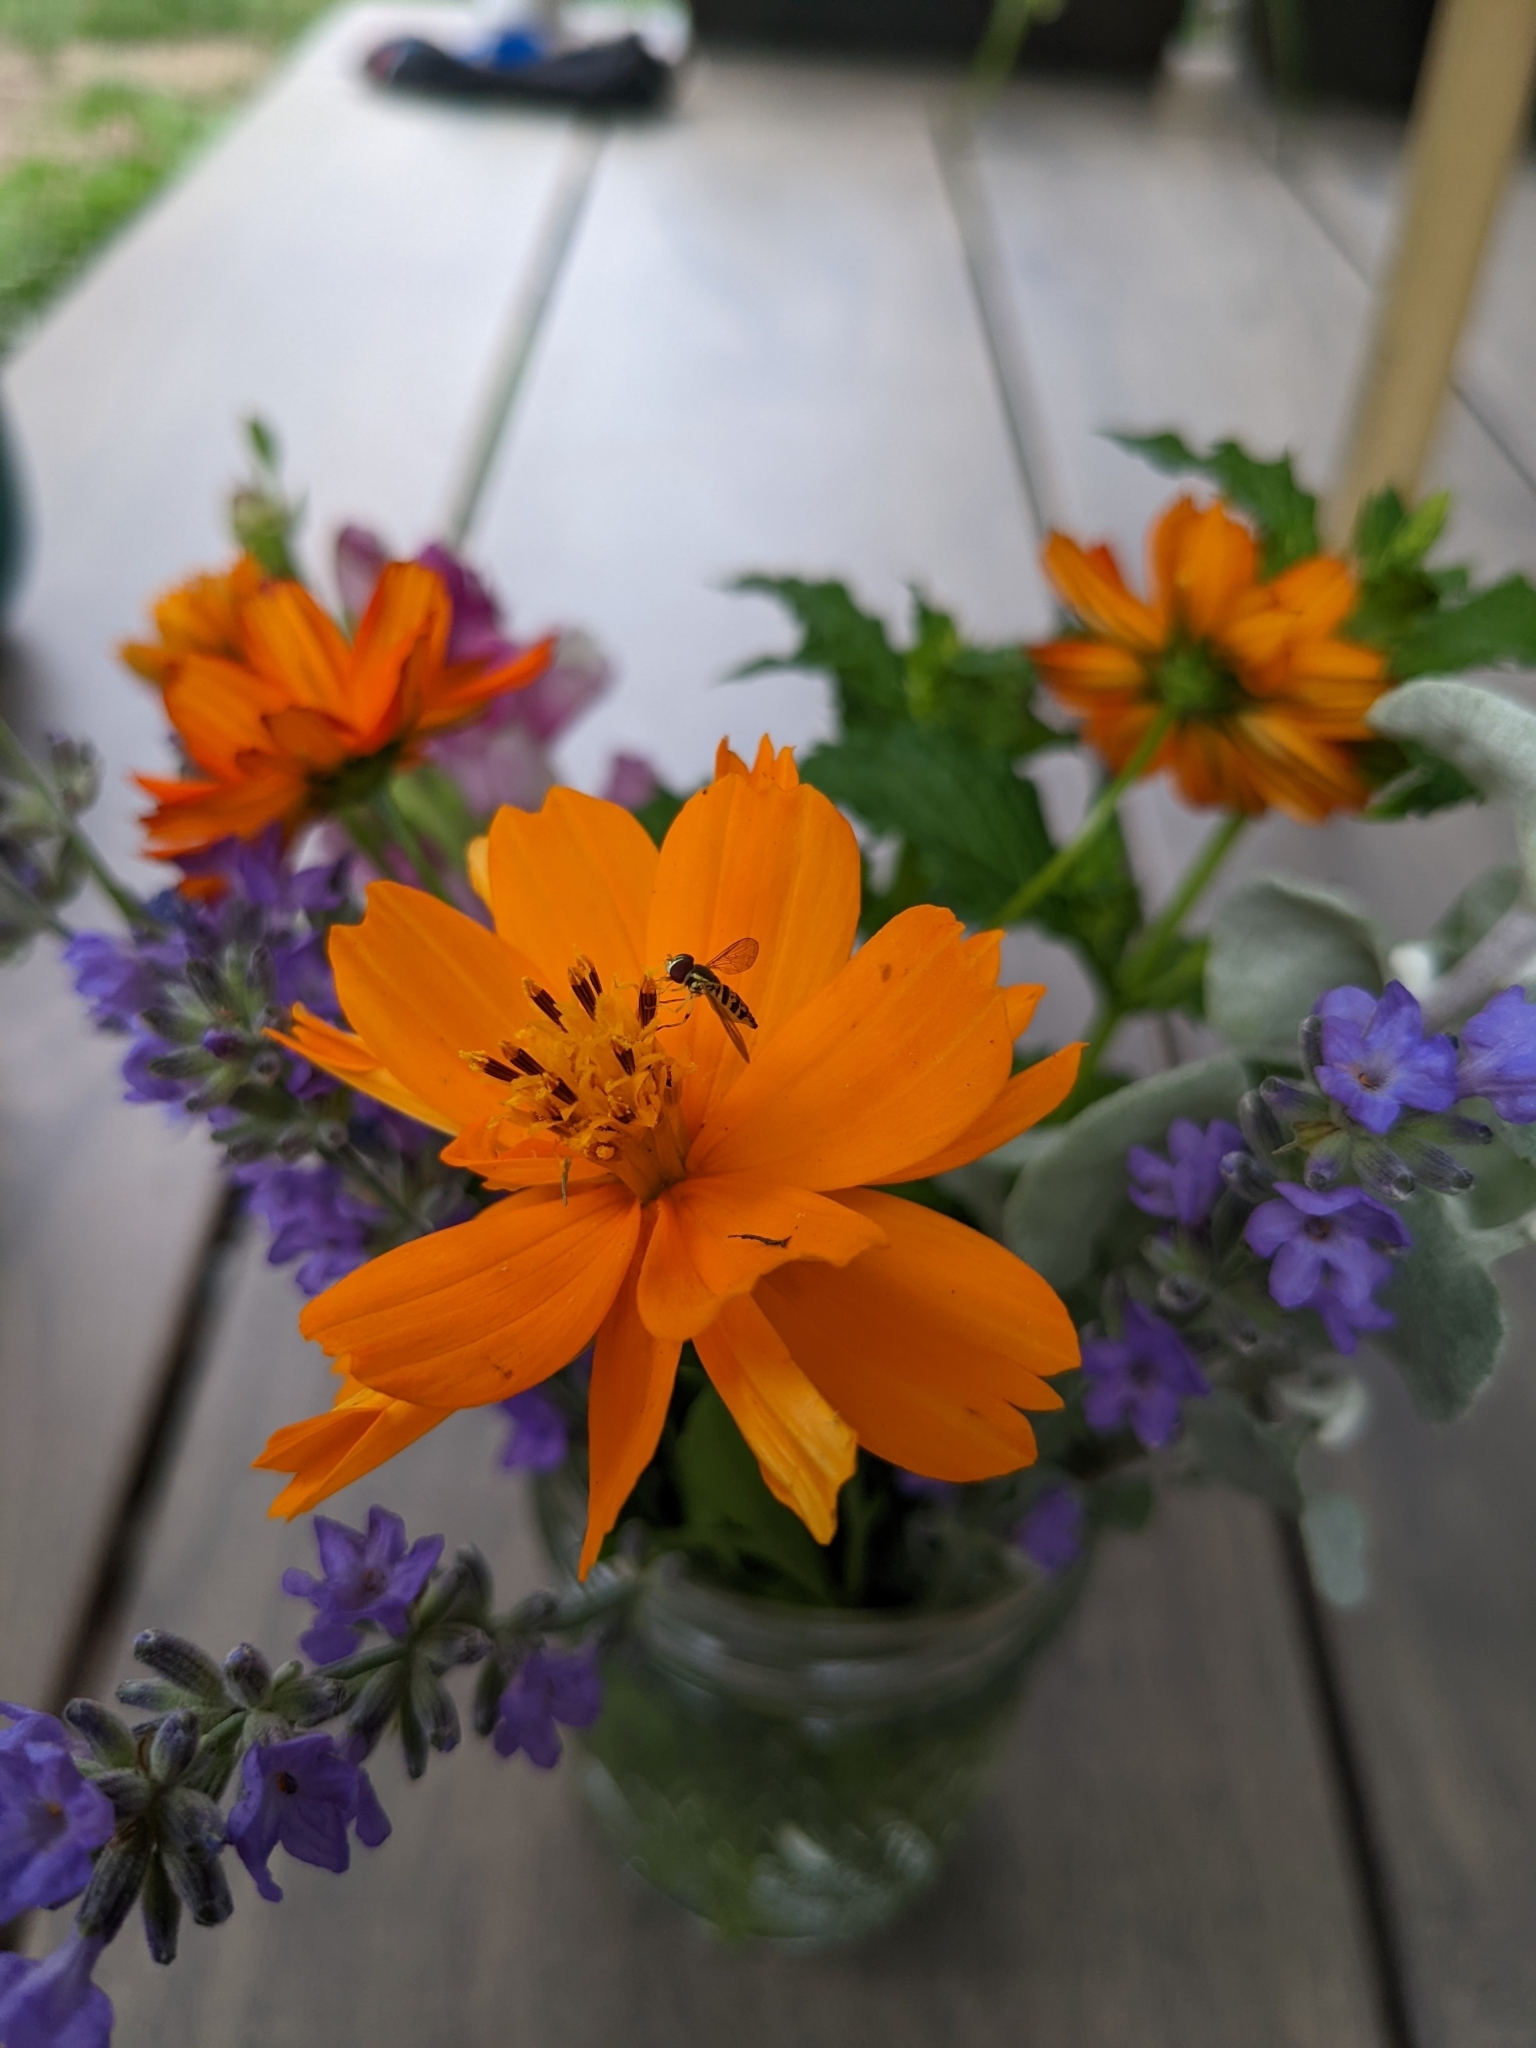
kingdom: Animalia
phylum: Arthropoda
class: Insecta
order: Diptera
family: Syrphidae
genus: Toxomerus
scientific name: Toxomerus geminatus
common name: Eastern calligrapher
